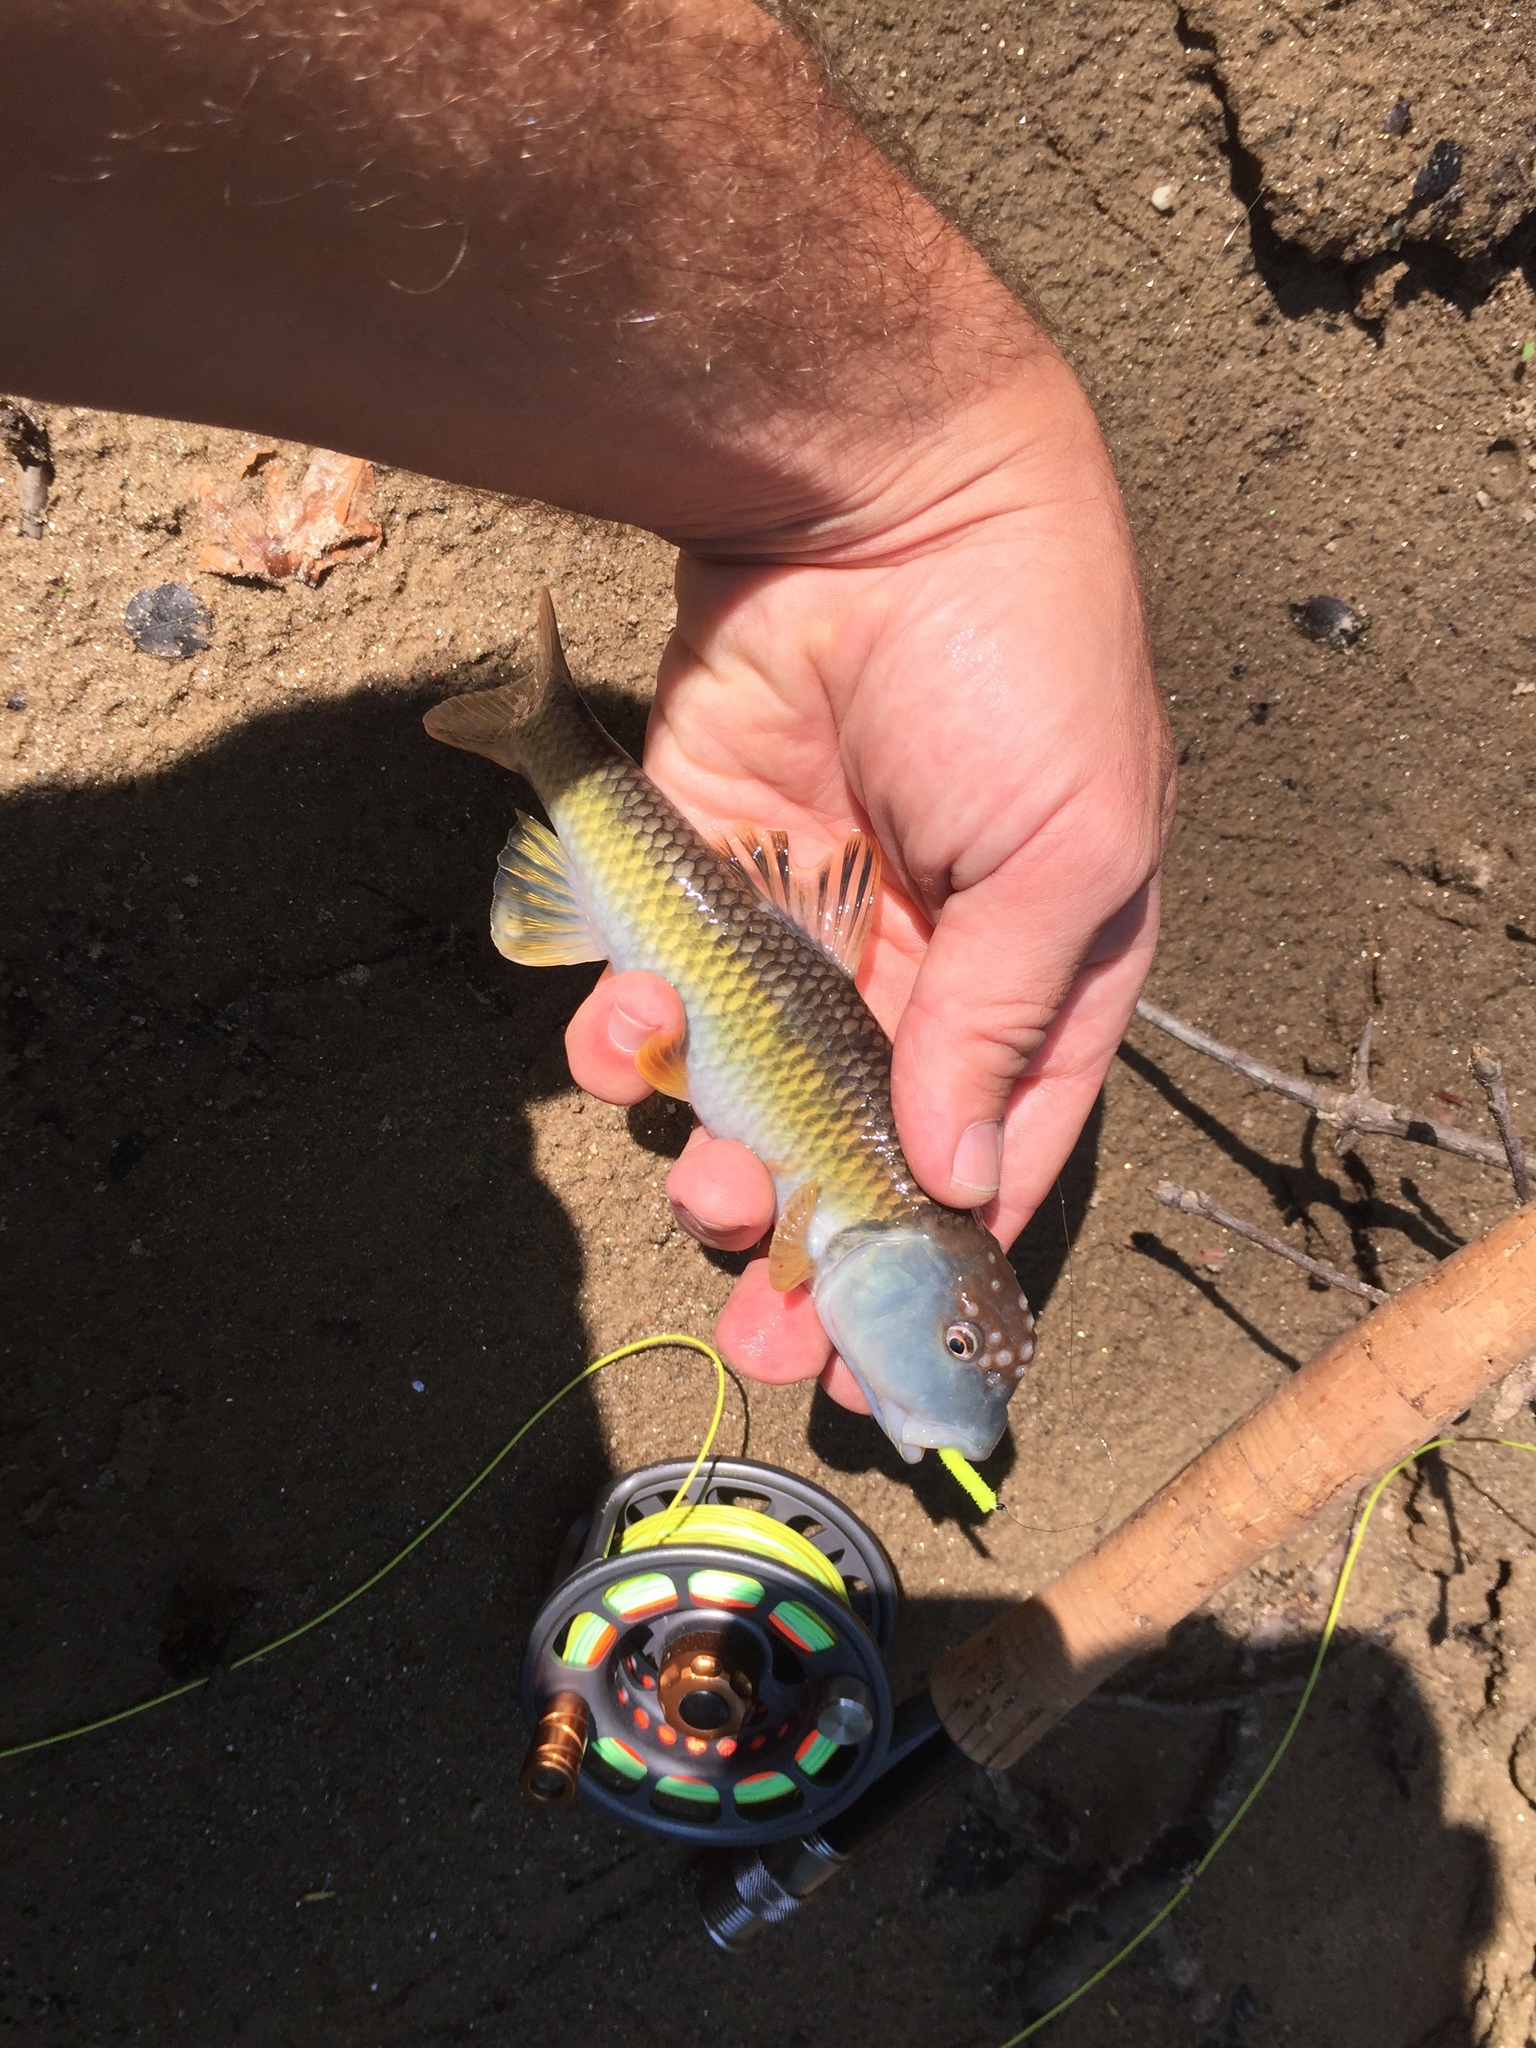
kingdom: Animalia
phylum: Chordata
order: Cypriniformes
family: Cyprinidae
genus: Nocomis
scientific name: Nocomis leptocephalus
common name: Bluehead chub
